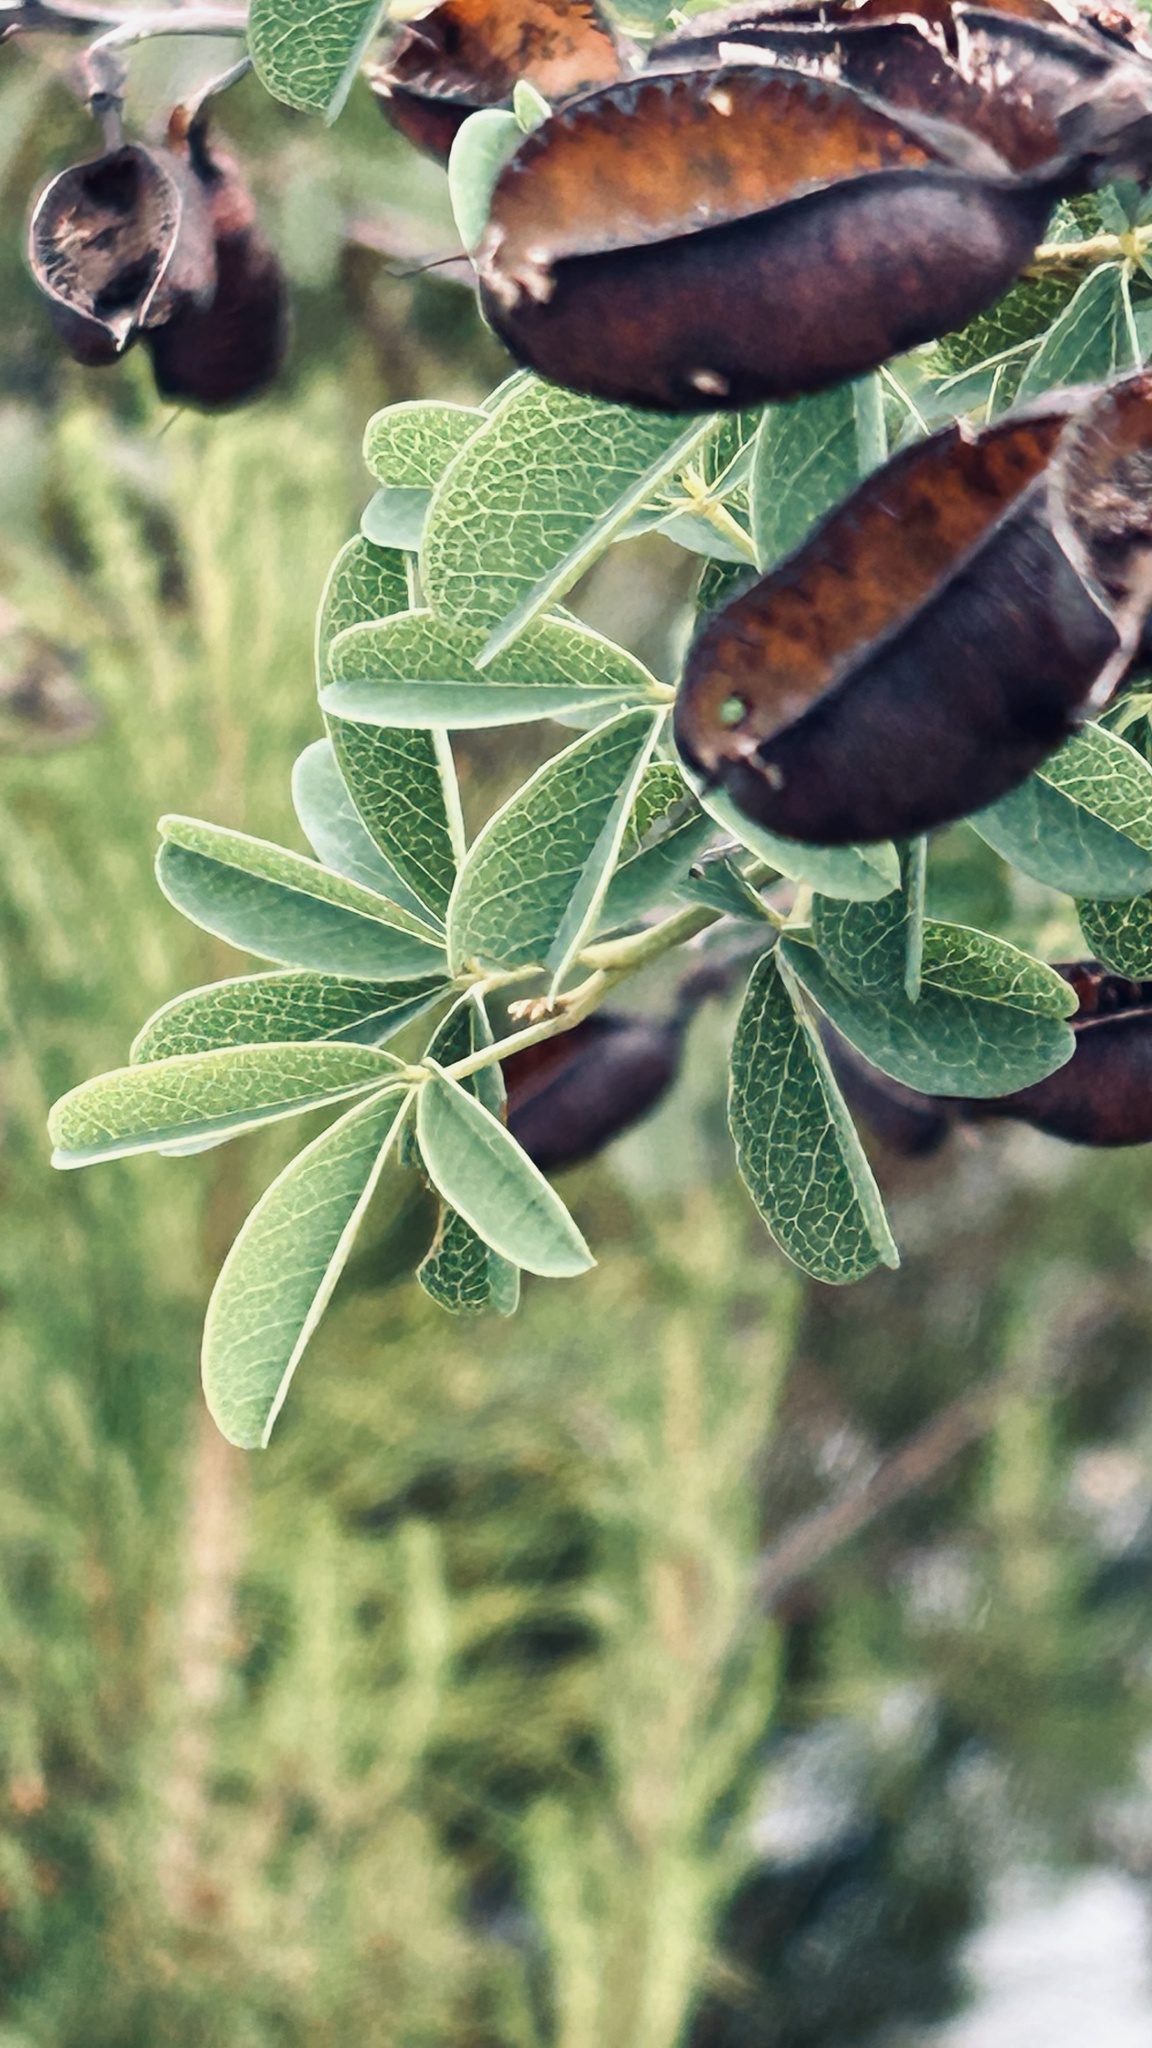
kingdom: Plantae
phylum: Tracheophyta
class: Magnoliopsida
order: Fabales
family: Fabaceae
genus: Hypocalyptus
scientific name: Hypocalyptus coluteoides
